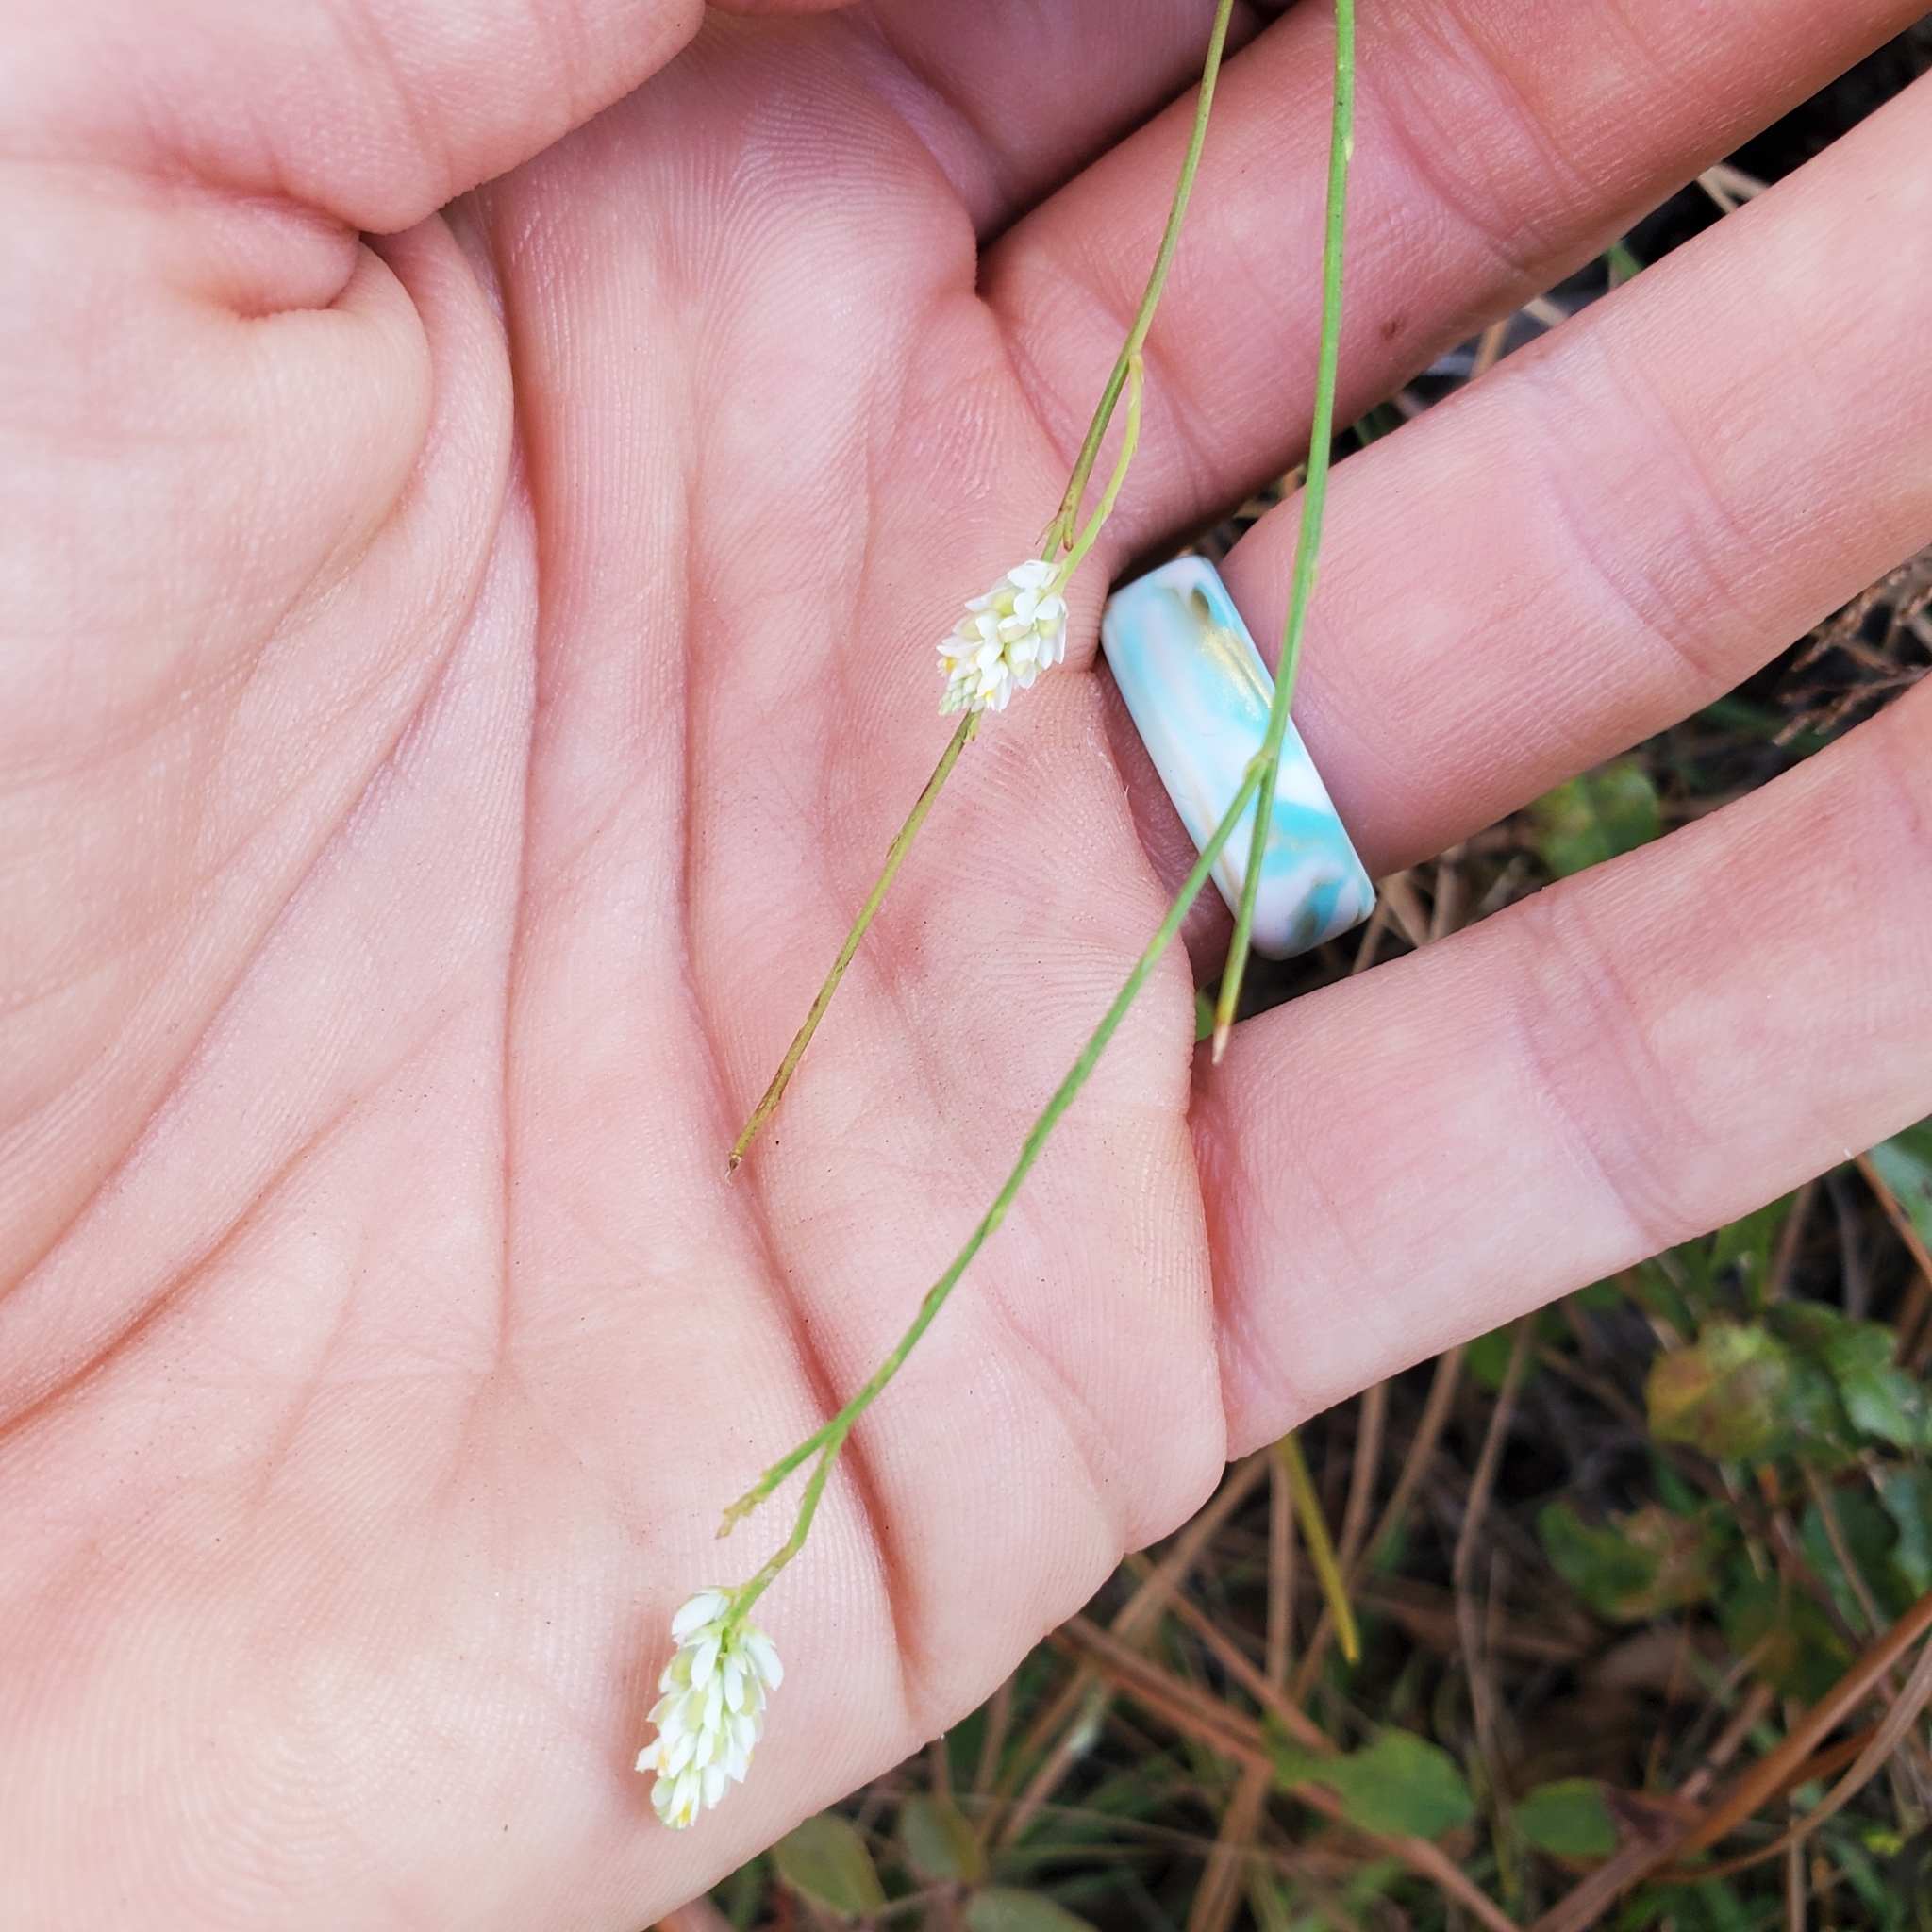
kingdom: Plantae
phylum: Tracheophyta
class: Magnoliopsida
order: Fabales
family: Polygalaceae
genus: Polygala
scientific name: Polygala setacea
